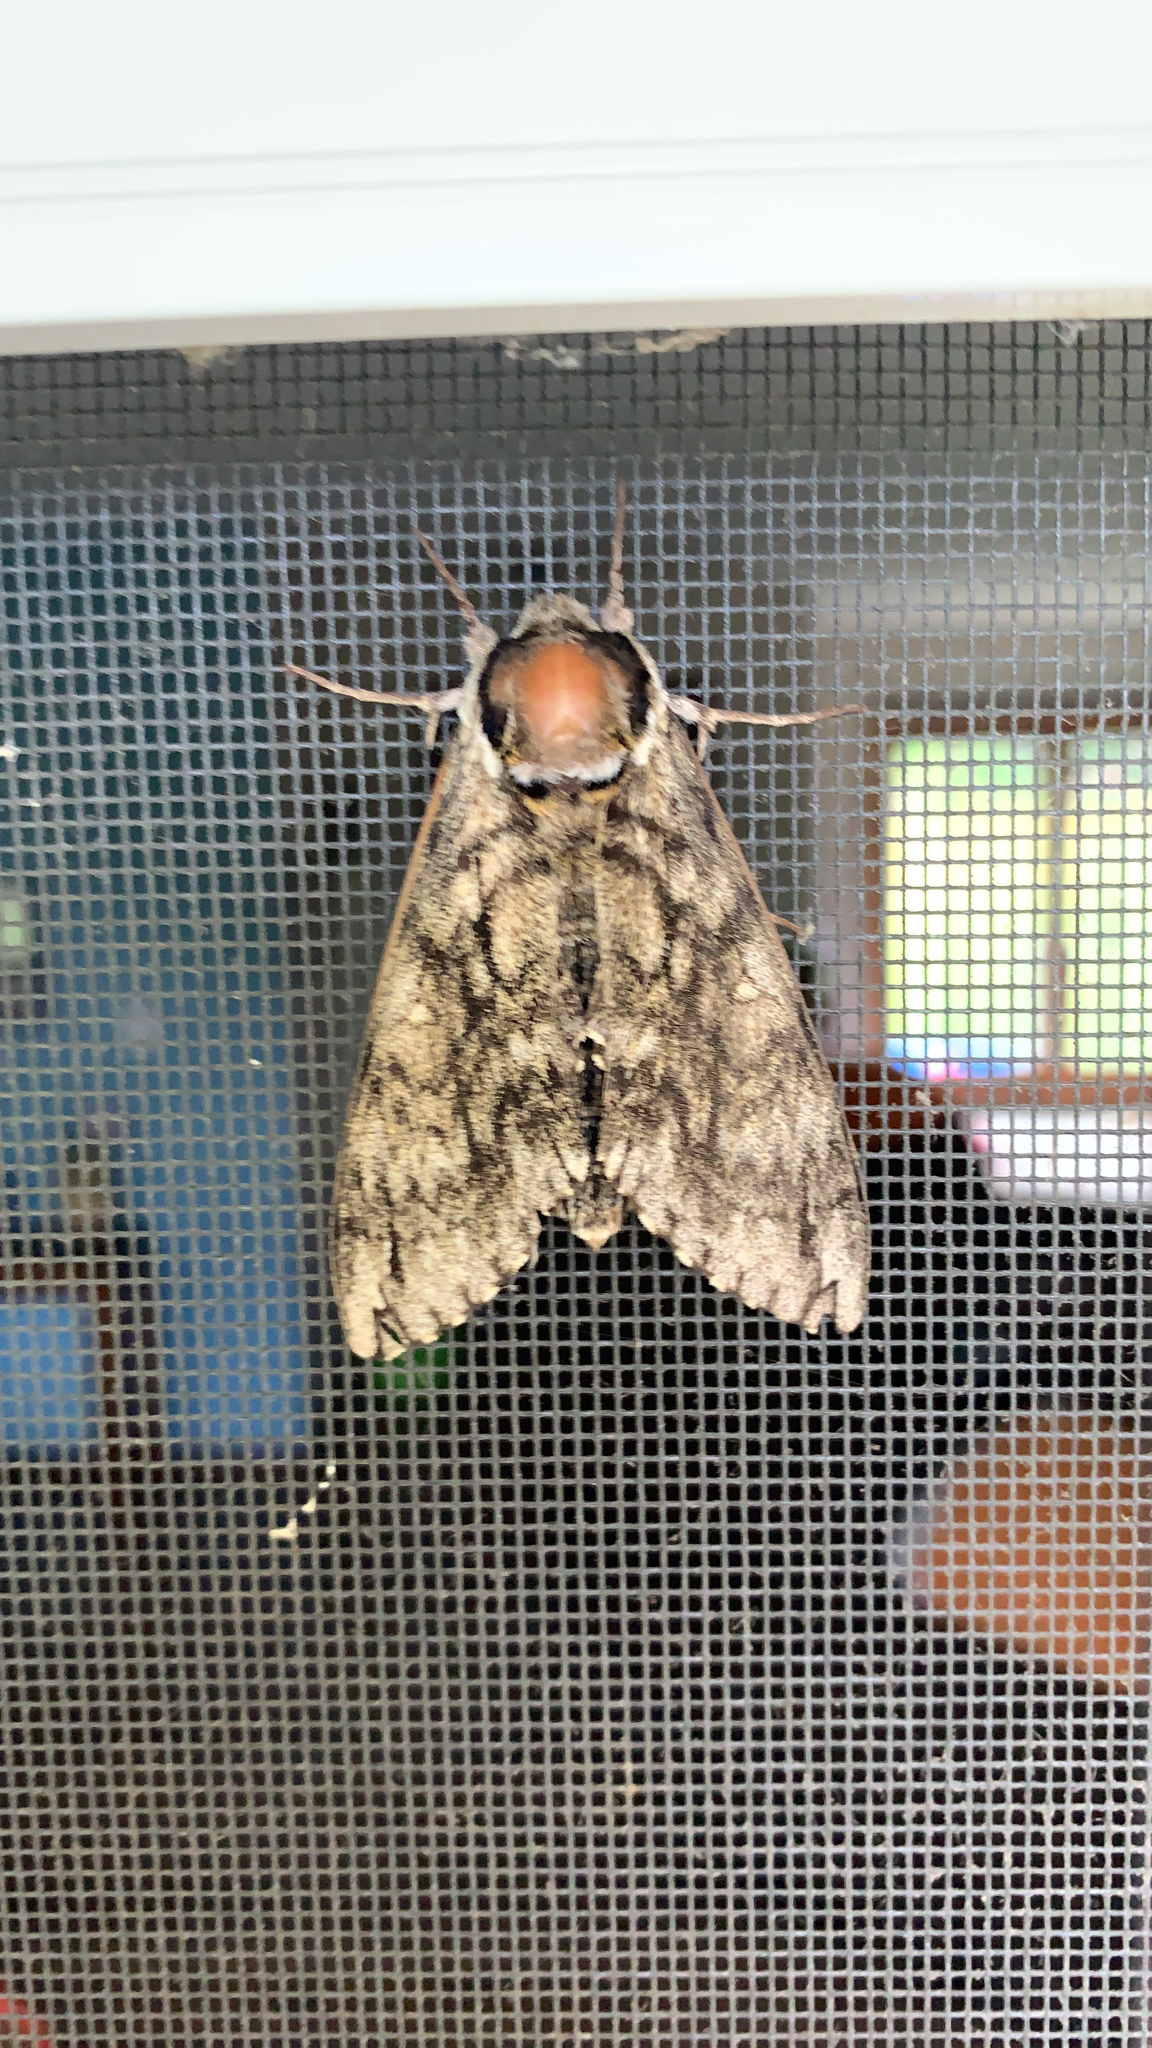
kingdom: Animalia
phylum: Arthropoda
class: Insecta
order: Lepidoptera
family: Sphingidae
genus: Ceratomia
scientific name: Ceratomia undulosa
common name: Waved sphinx
